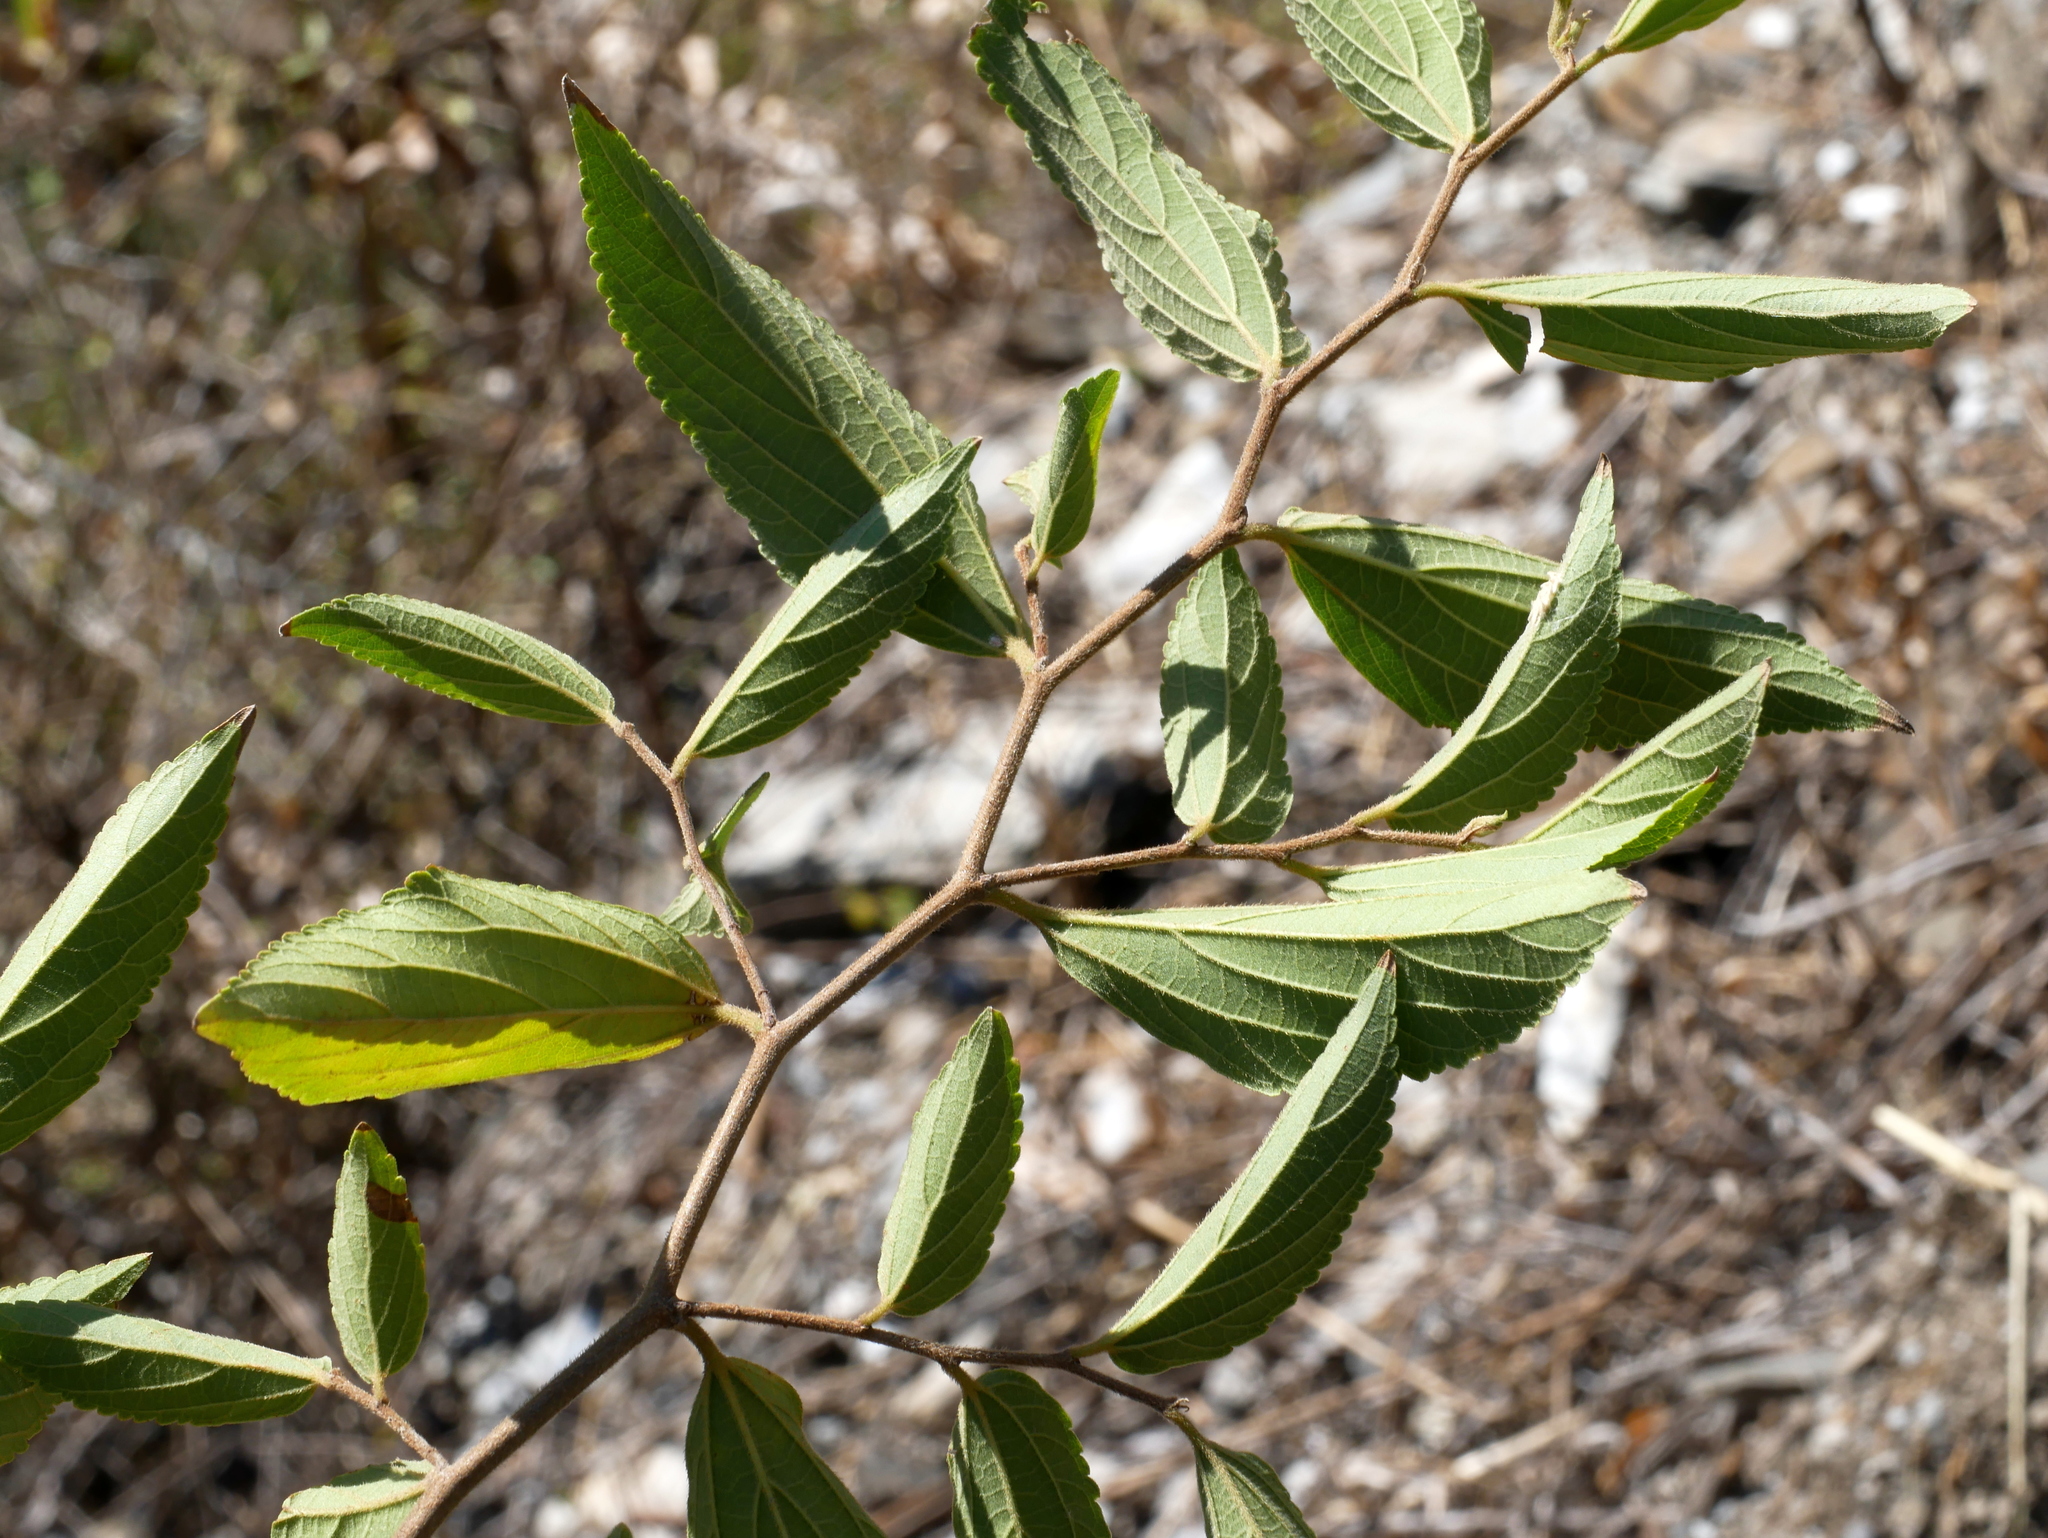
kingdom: Plantae
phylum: Tracheophyta
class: Magnoliopsida
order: Rosales
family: Cannabaceae
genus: Celtis
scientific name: Celtis sinensis
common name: Chinese hackberry
